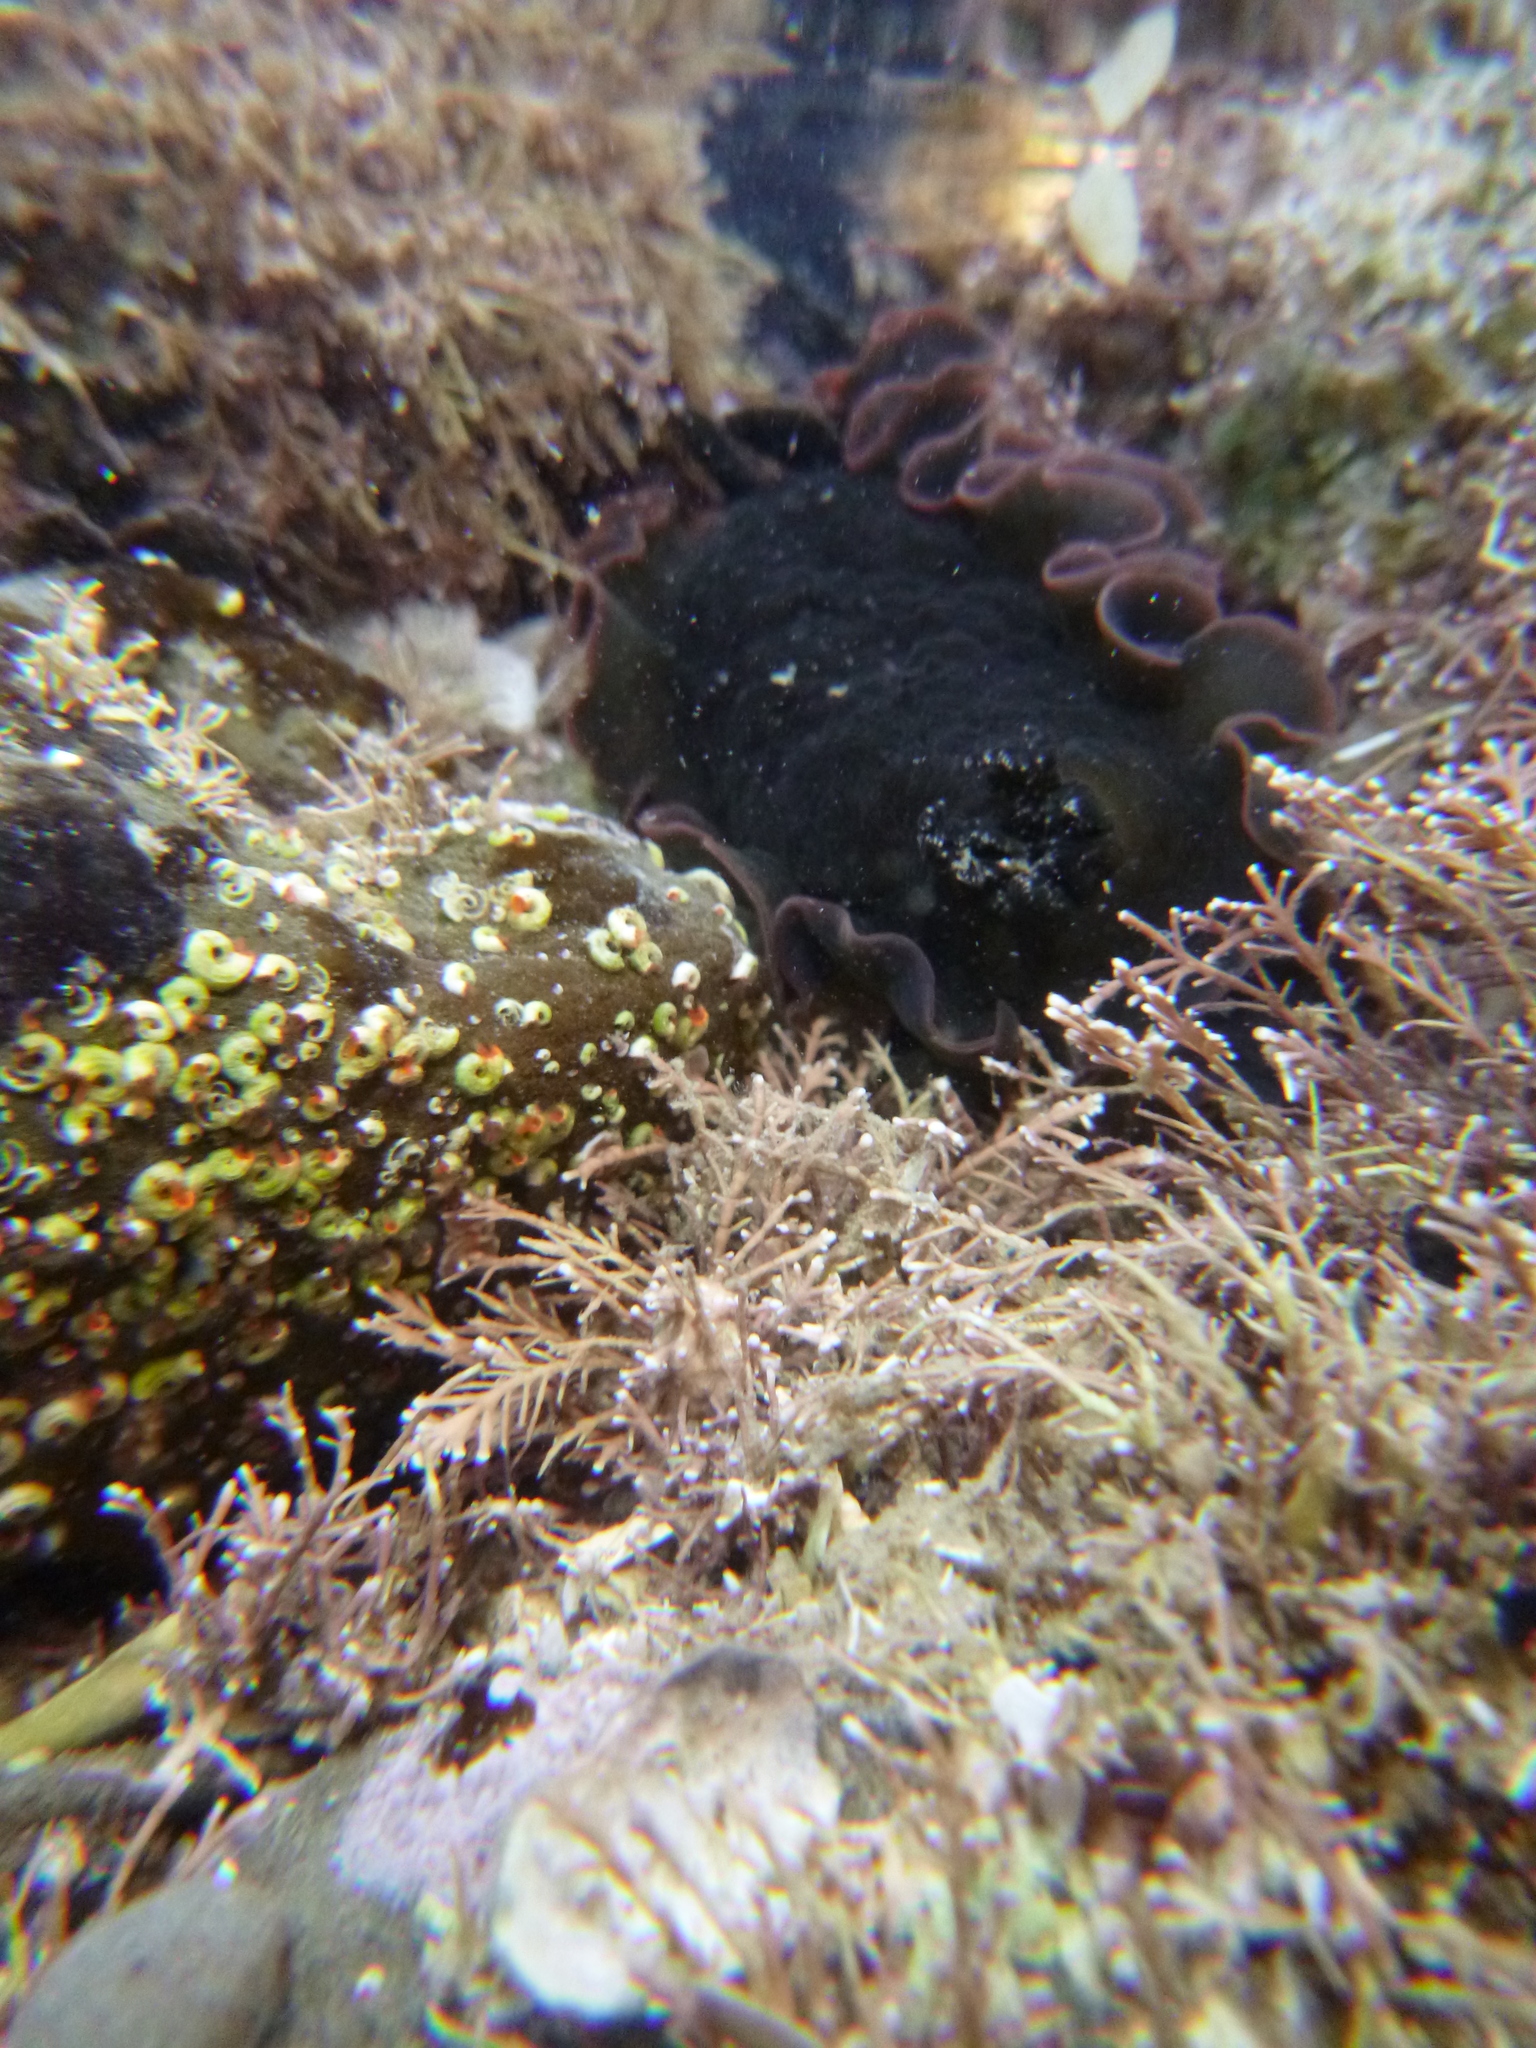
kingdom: Animalia
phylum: Mollusca
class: Gastropoda
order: Nudibranchia
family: Dendrodorididae
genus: Dendrodoris
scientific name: Dendrodoris arborescens
